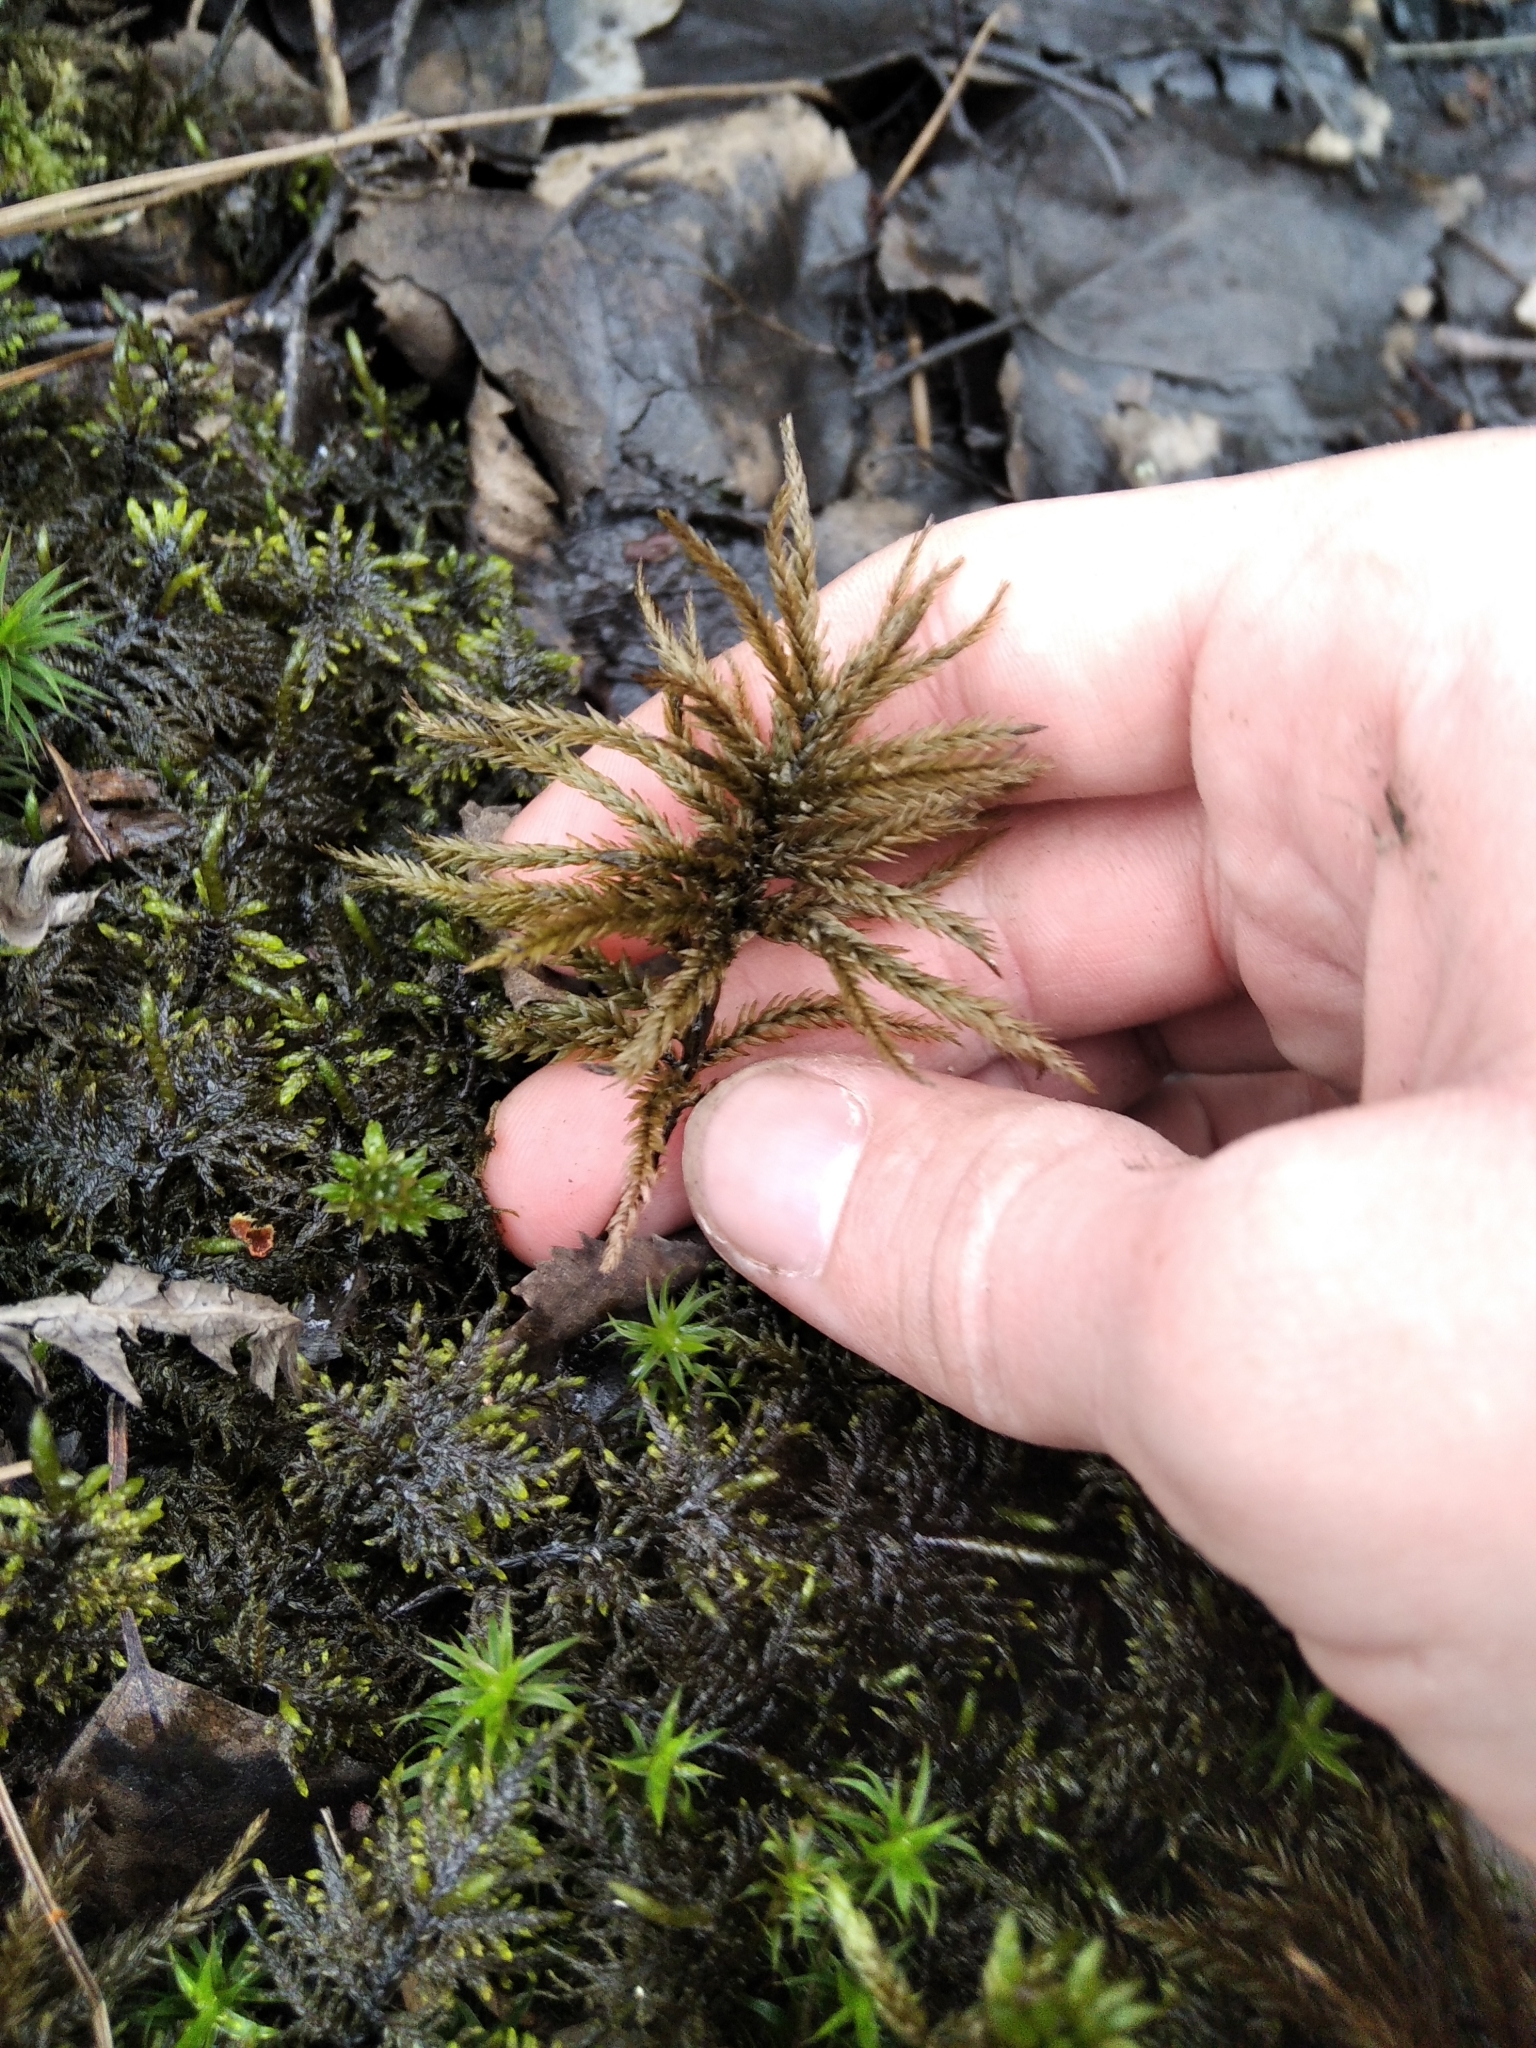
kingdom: Plantae
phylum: Bryophyta
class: Bryopsida
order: Hypnales
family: Climaciaceae
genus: Climacium
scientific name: Climacium dendroides
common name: Northern tree moss
